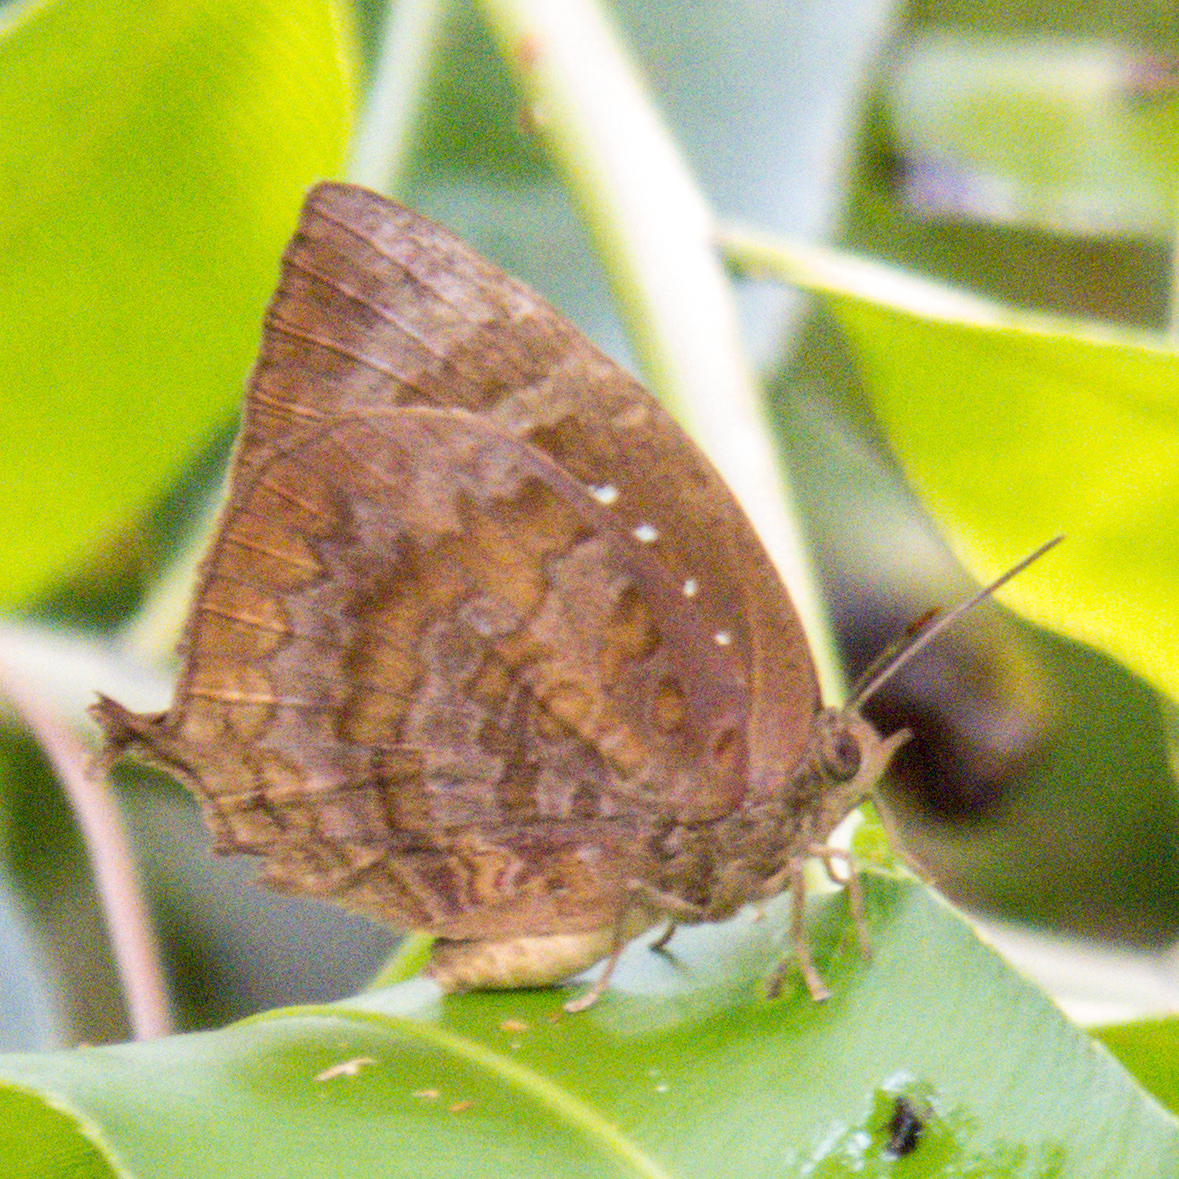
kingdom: Animalia
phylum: Arthropoda
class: Insecta
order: Lepidoptera
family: Lycaenidae
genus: Arhopala
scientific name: Arhopala centaurus
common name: Dull oak-blue
